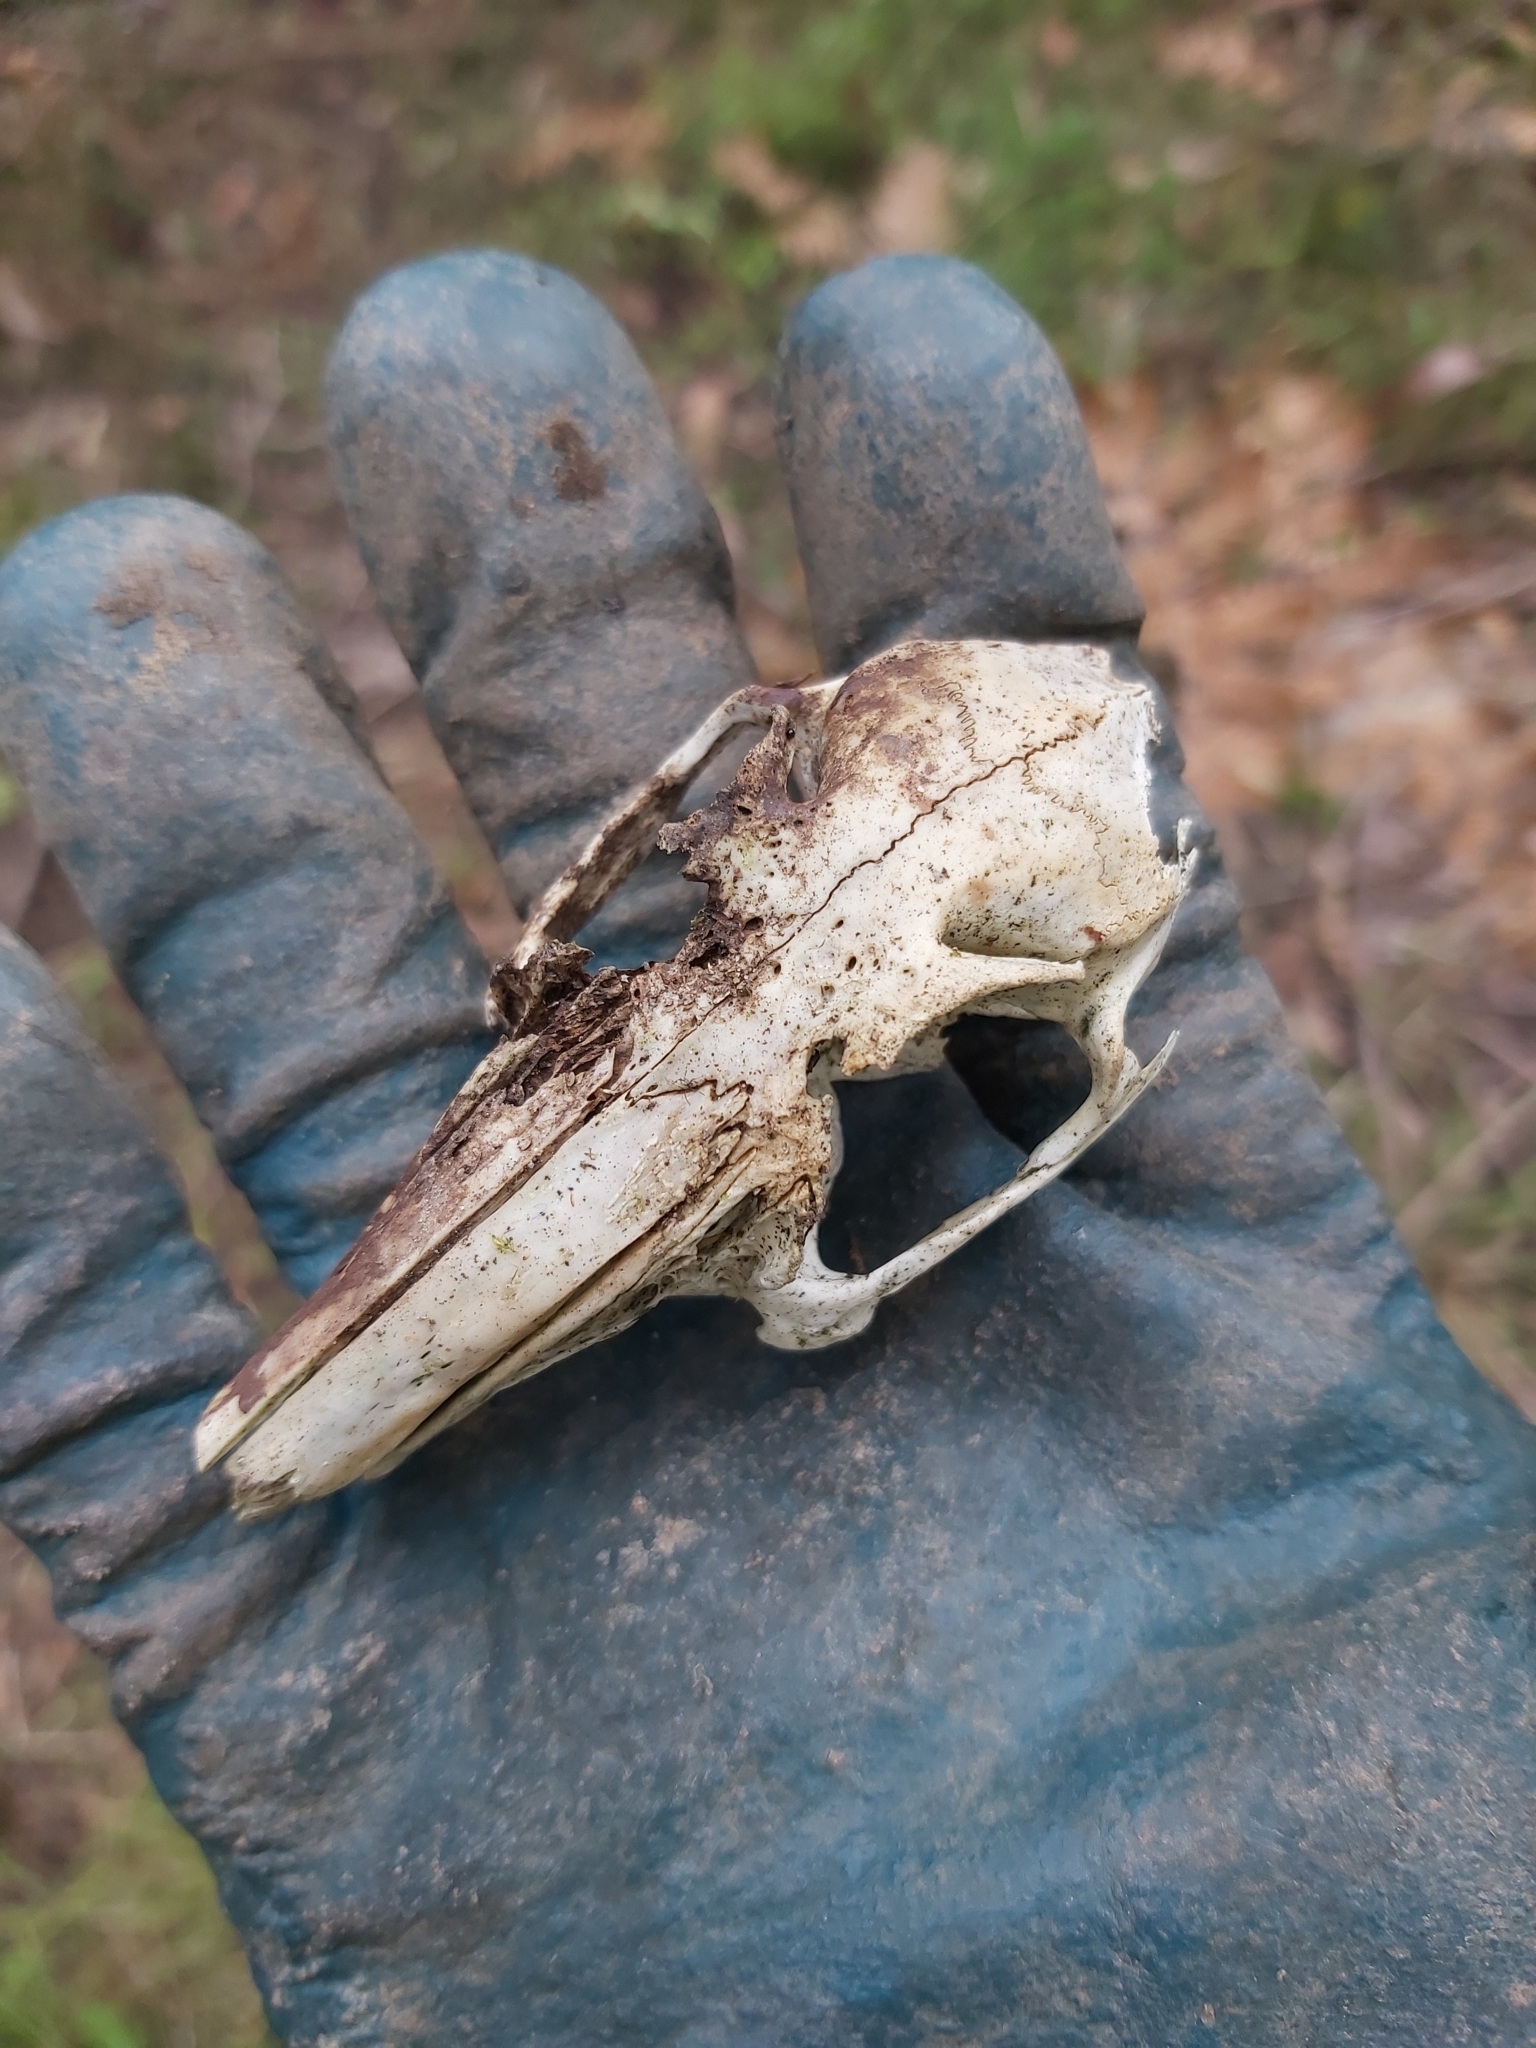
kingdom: Animalia
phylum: Chordata
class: Mammalia
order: Lagomorpha
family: Leporidae
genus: Oryctolagus
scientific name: Oryctolagus cuniculus
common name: European rabbit
